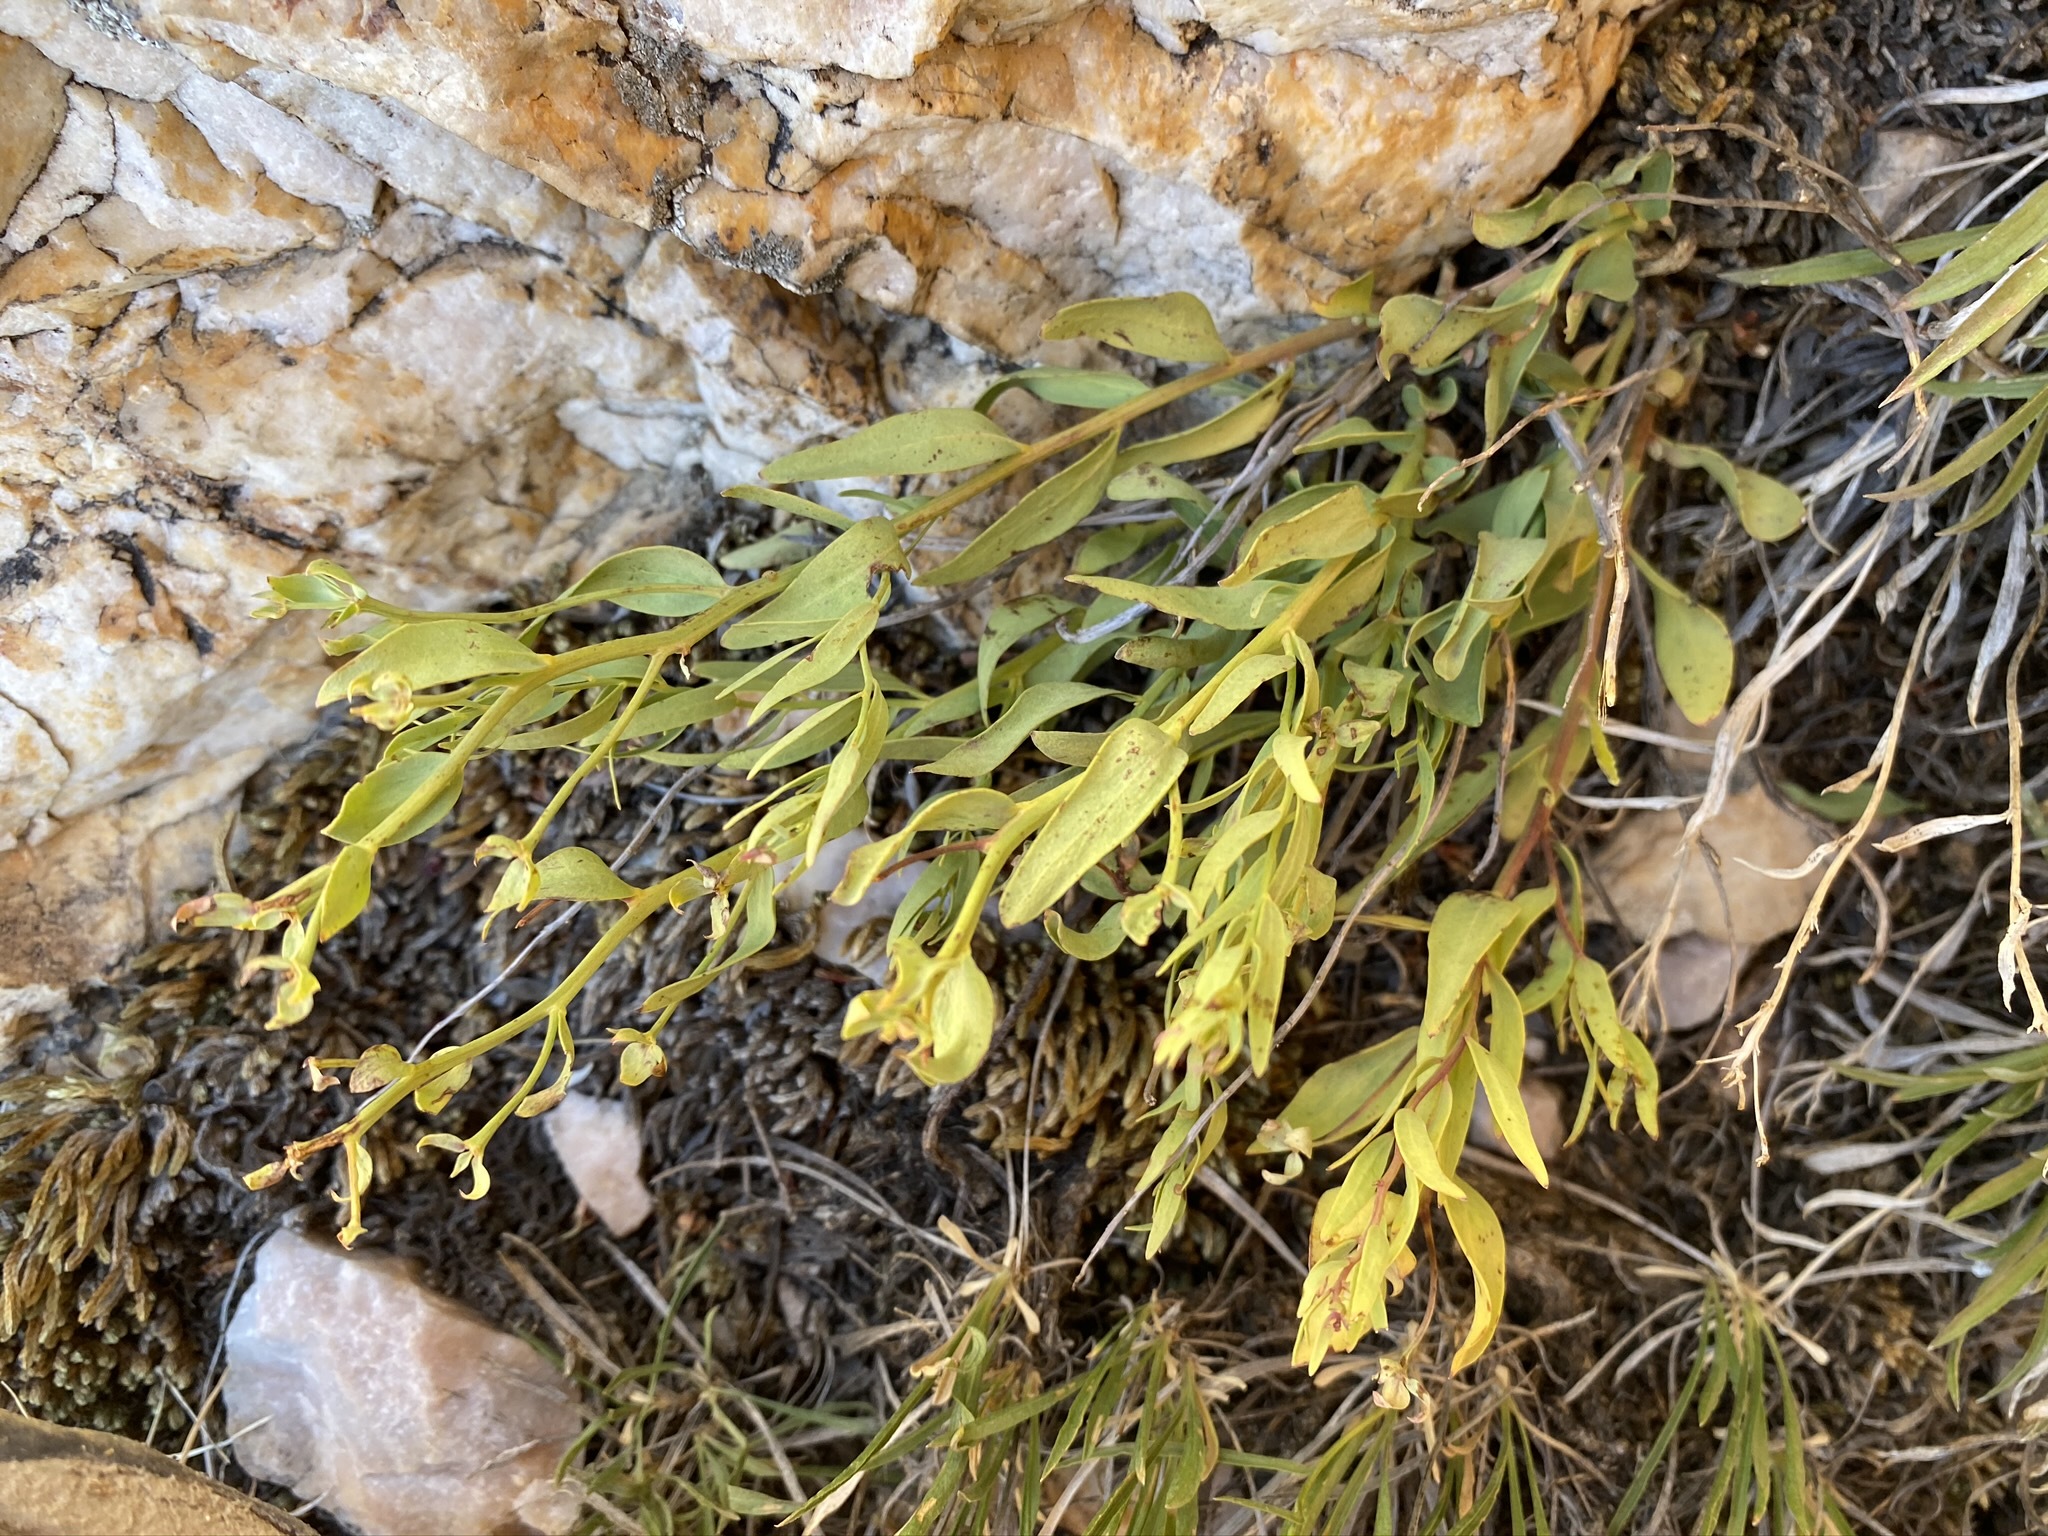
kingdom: Plantae
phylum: Tracheophyta
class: Magnoliopsida
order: Santalales
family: Comandraceae
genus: Comandra
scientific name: Comandra umbellata
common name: Bastard toadflax
